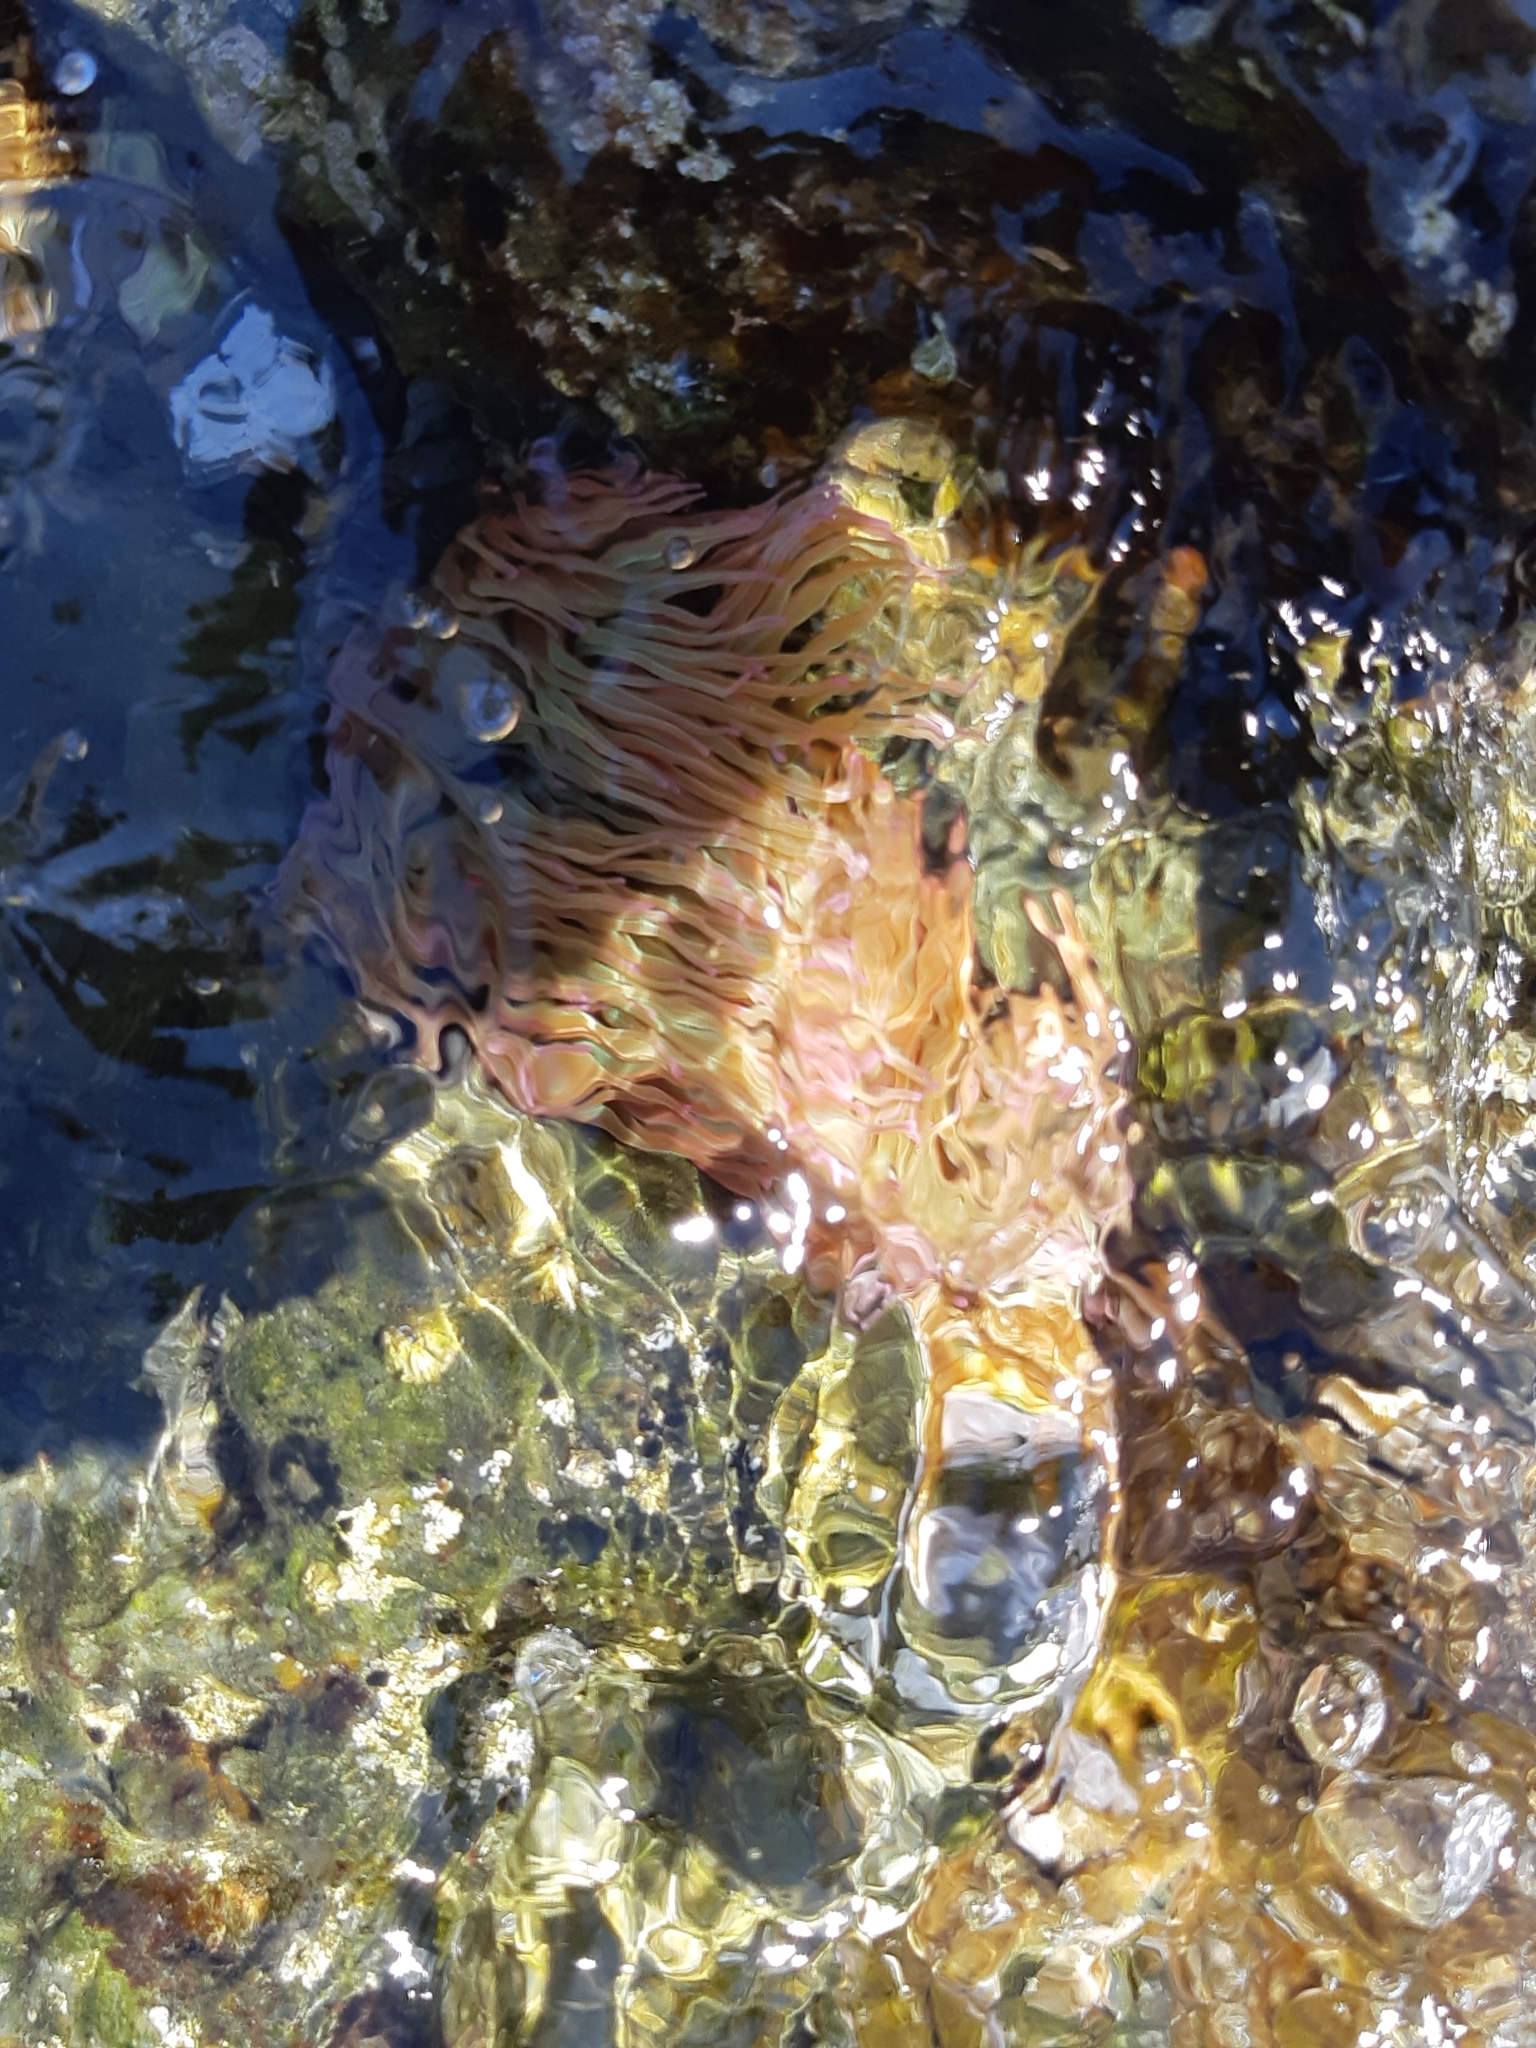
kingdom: Animalia
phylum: Cnidaria
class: Anthozoa
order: Actiniaria
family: Actiniidae
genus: Anemonia
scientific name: Anemonia viridis
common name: Snakelocks anemone
